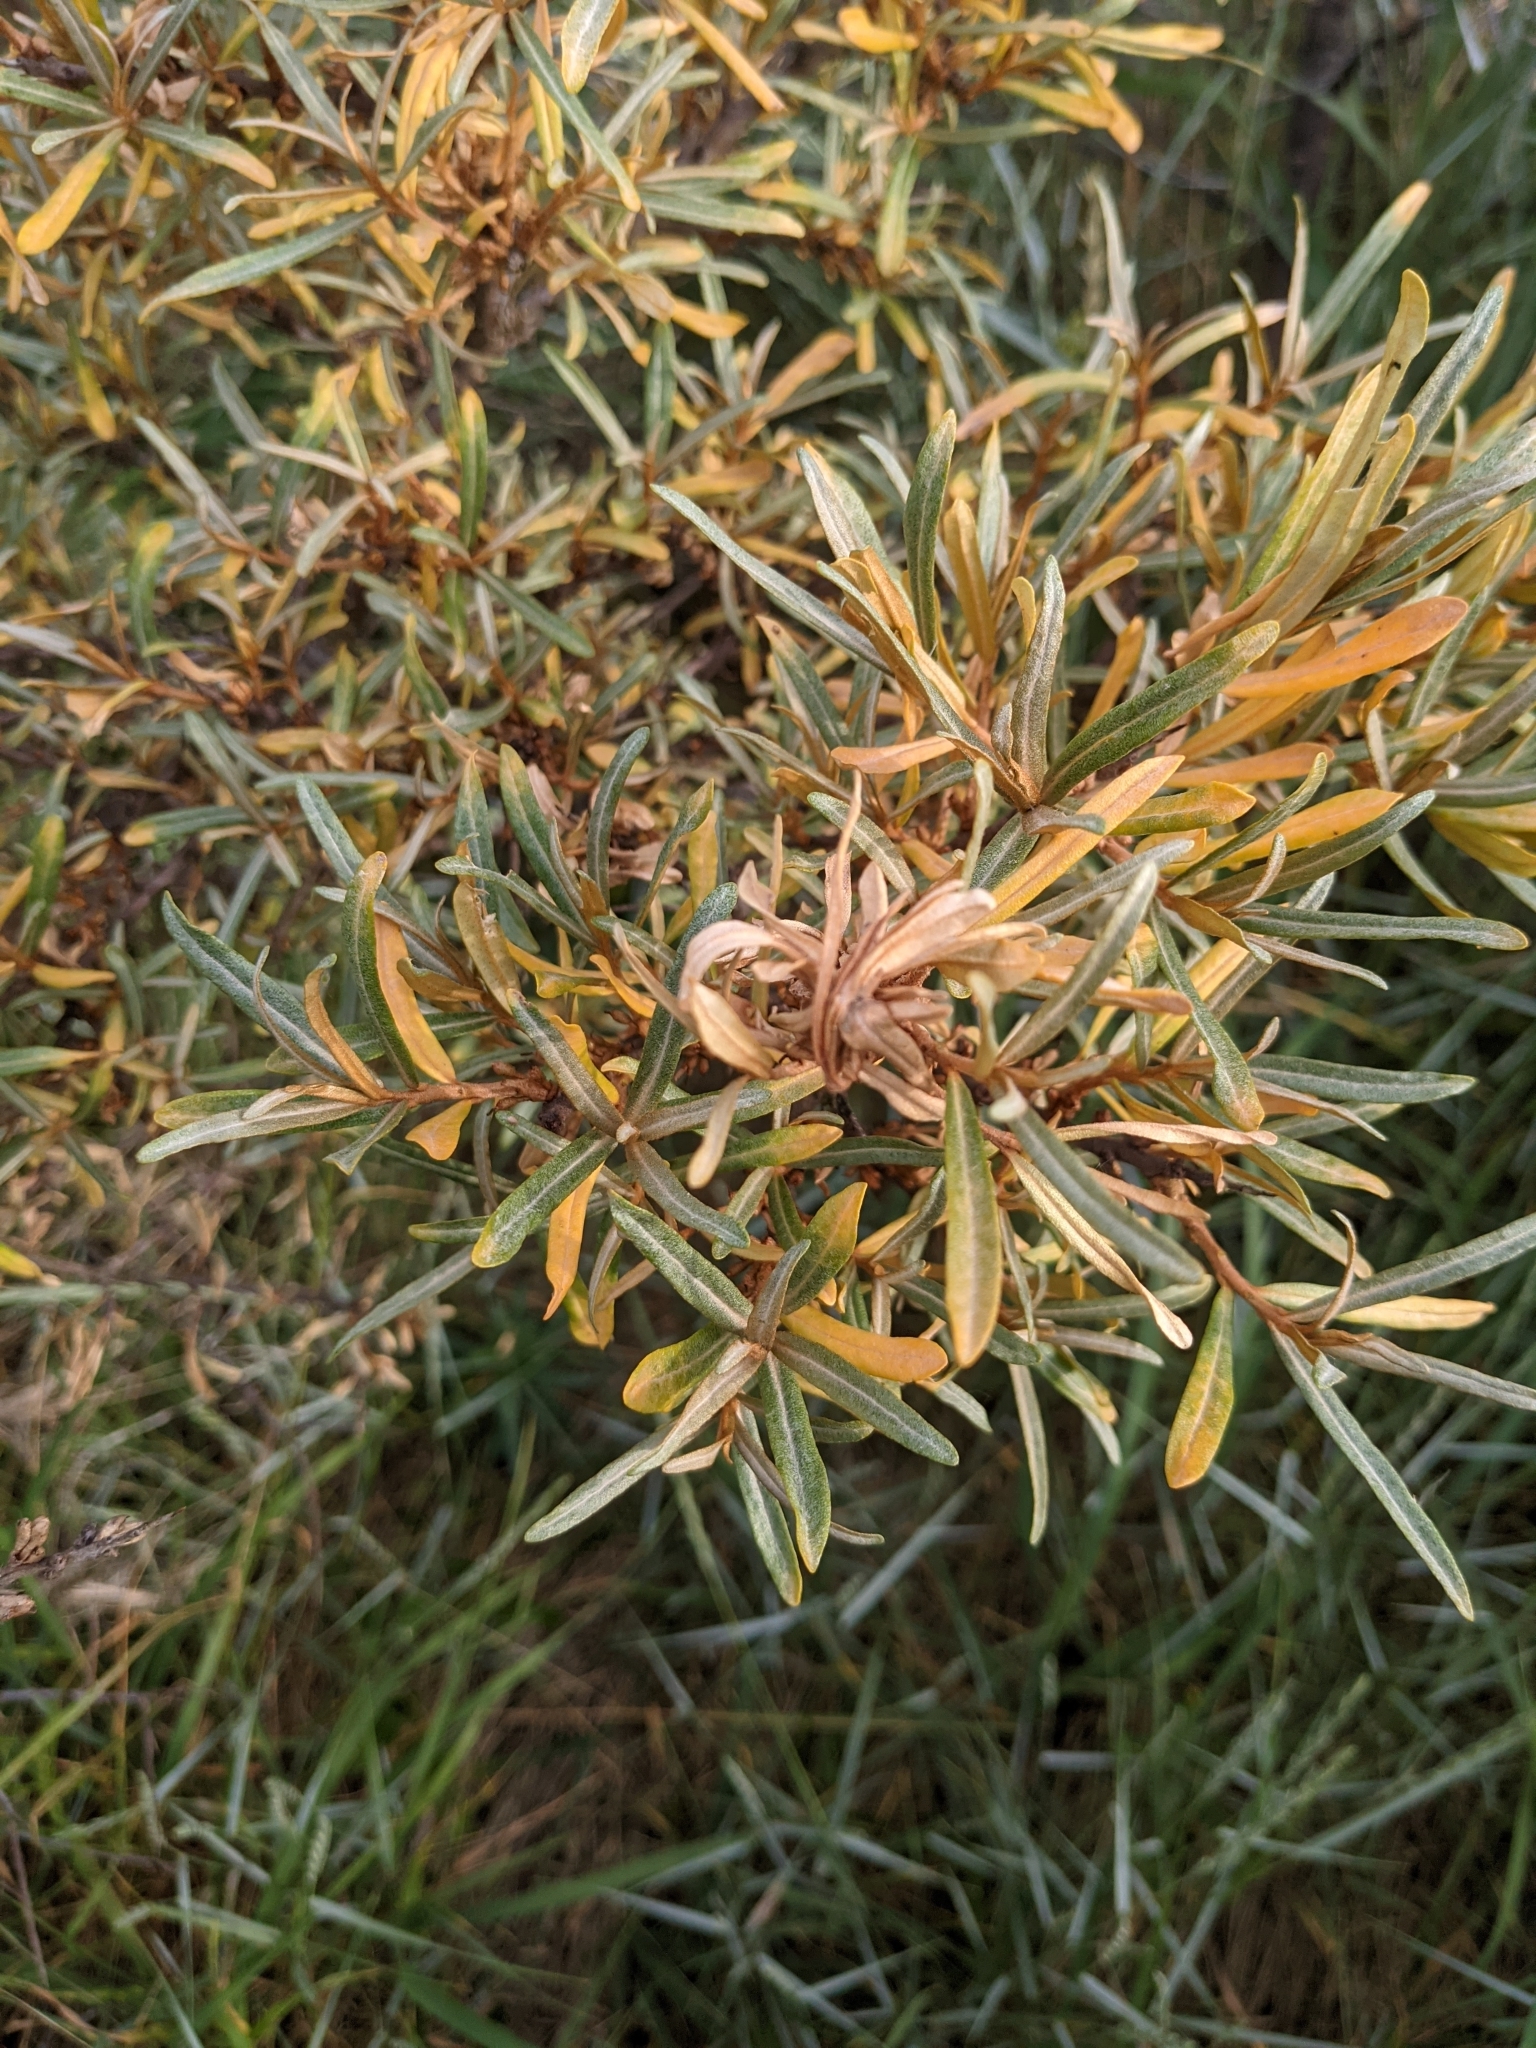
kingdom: Plantae
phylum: Tracheophyta
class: Magnoliopsida
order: Rosales
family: Elaeagnaceae
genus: Hippophae
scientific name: Hippophae rhamnoides
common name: Sea-buckthorn
